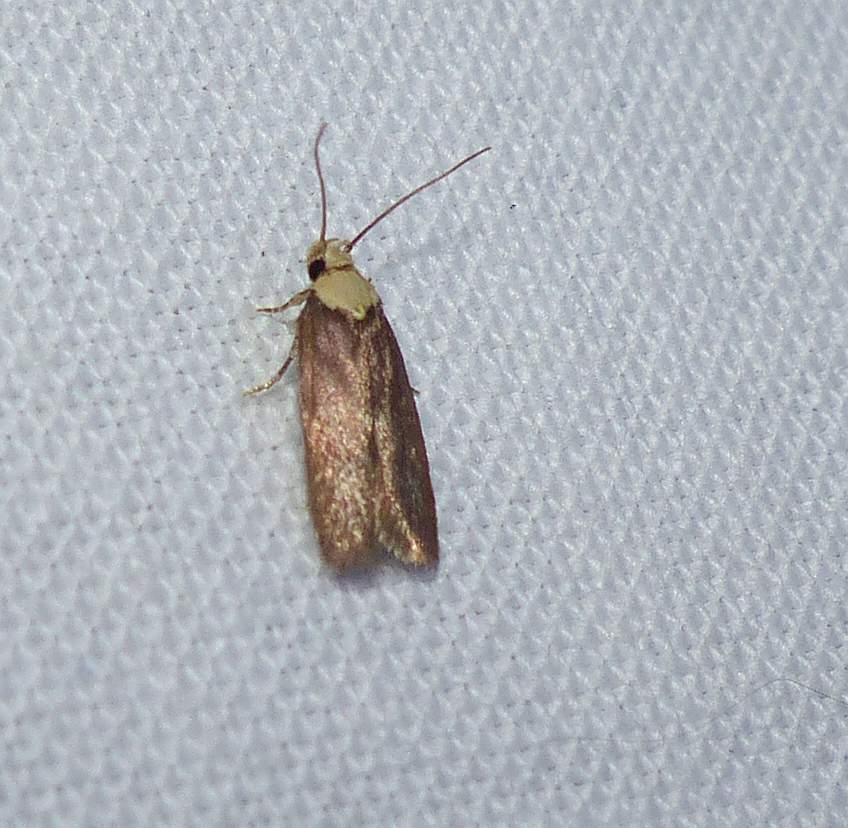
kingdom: Animalia
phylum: Arthropoda
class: Insecta
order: Lepidoptera
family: Depressariidae
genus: Depressaria
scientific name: Depressaria depressana
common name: Lost flat-body
